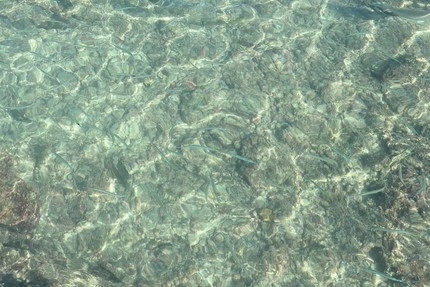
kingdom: Animalia
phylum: Chordata
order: Beloniformes
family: Belonidae
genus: Platybelone
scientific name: Platybelone argalus
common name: Keeltail needlefish
